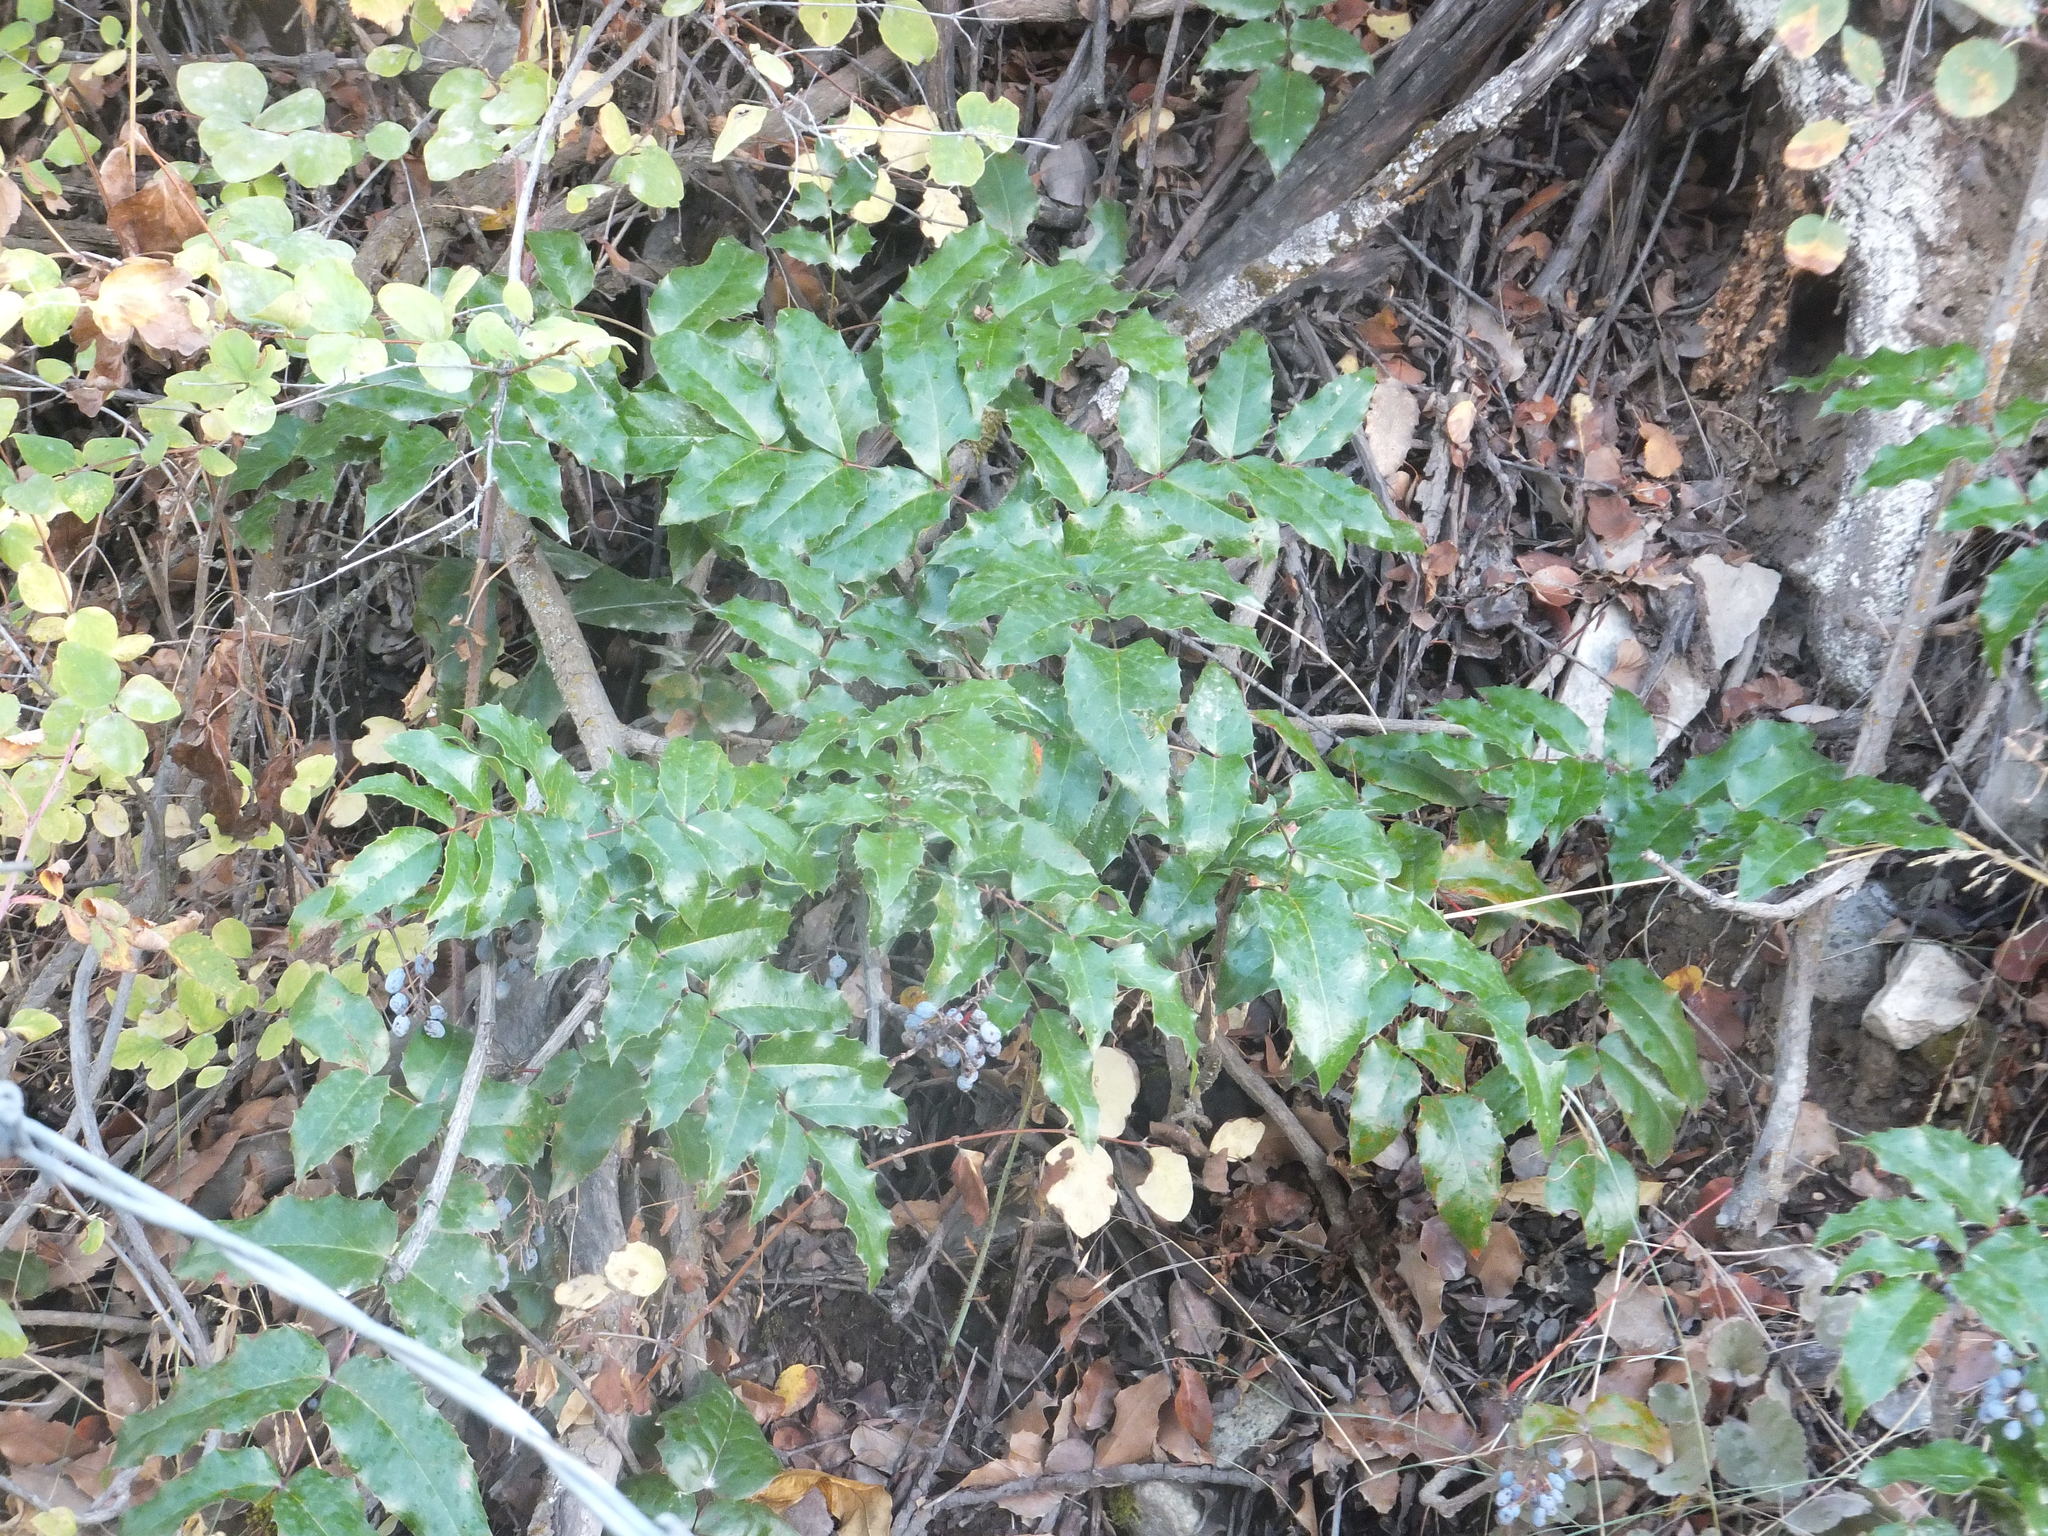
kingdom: Plantae
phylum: Tracheophyta
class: Magnoliopsida
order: Ranunculales
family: Berberidaceae
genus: Mahonia
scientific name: Mahonia aquifolium
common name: Oregon-grape
